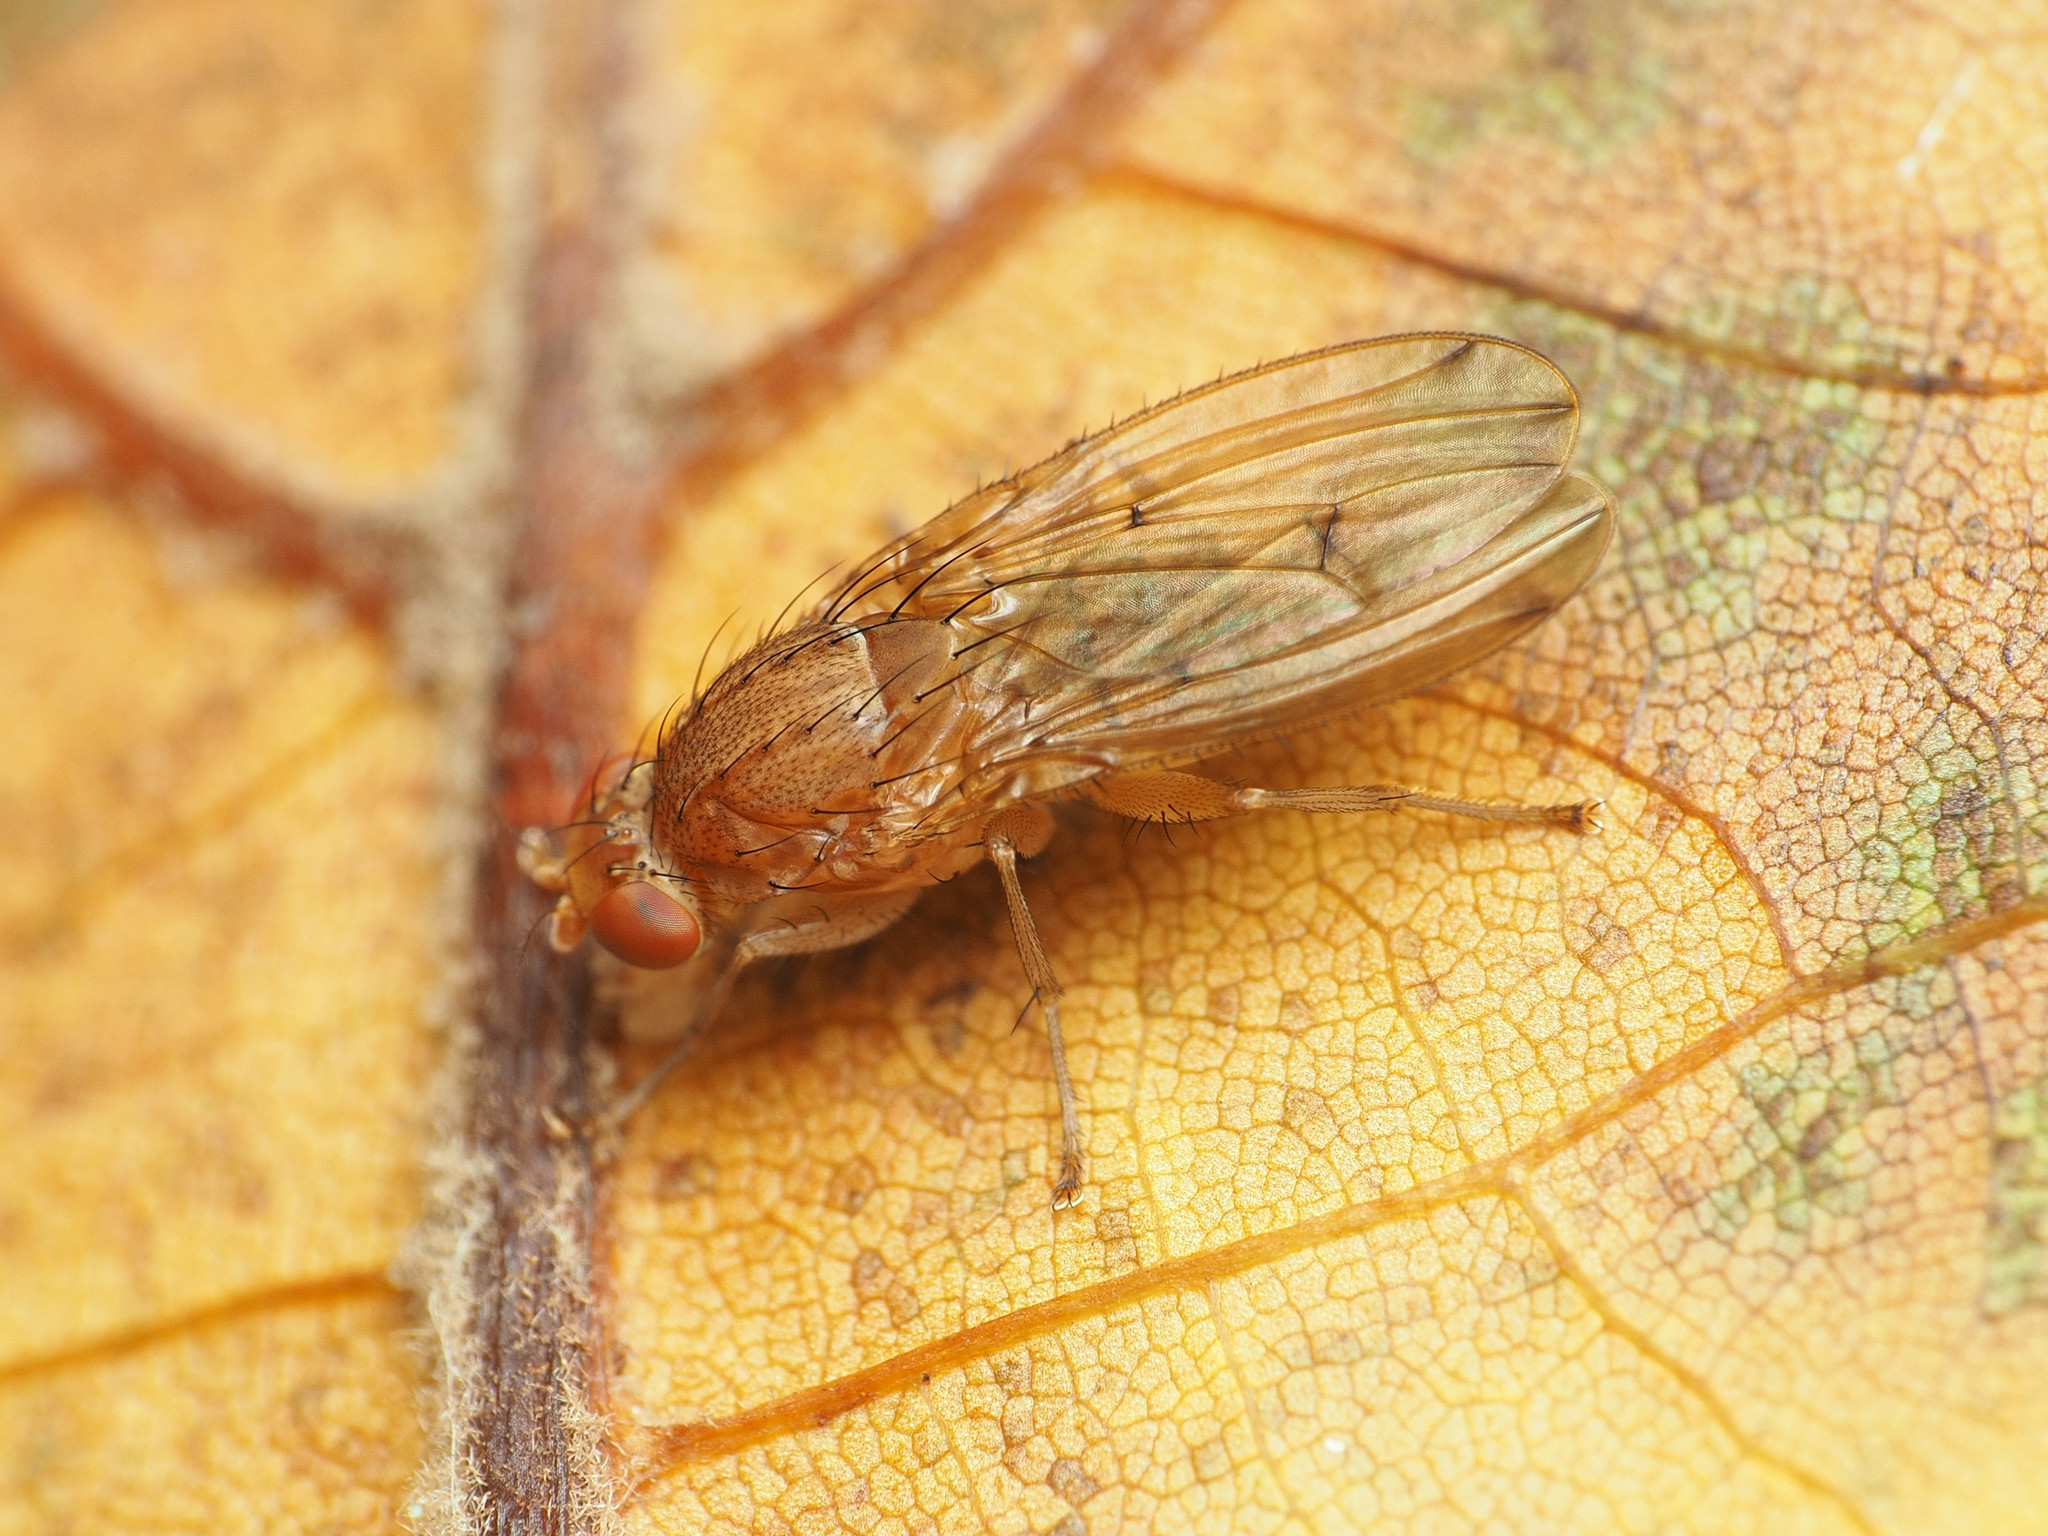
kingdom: Animalia
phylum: Arthropoda
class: Insecta
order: Diptera
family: Heleomyzidae
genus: Suillia
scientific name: Suillia plumata
